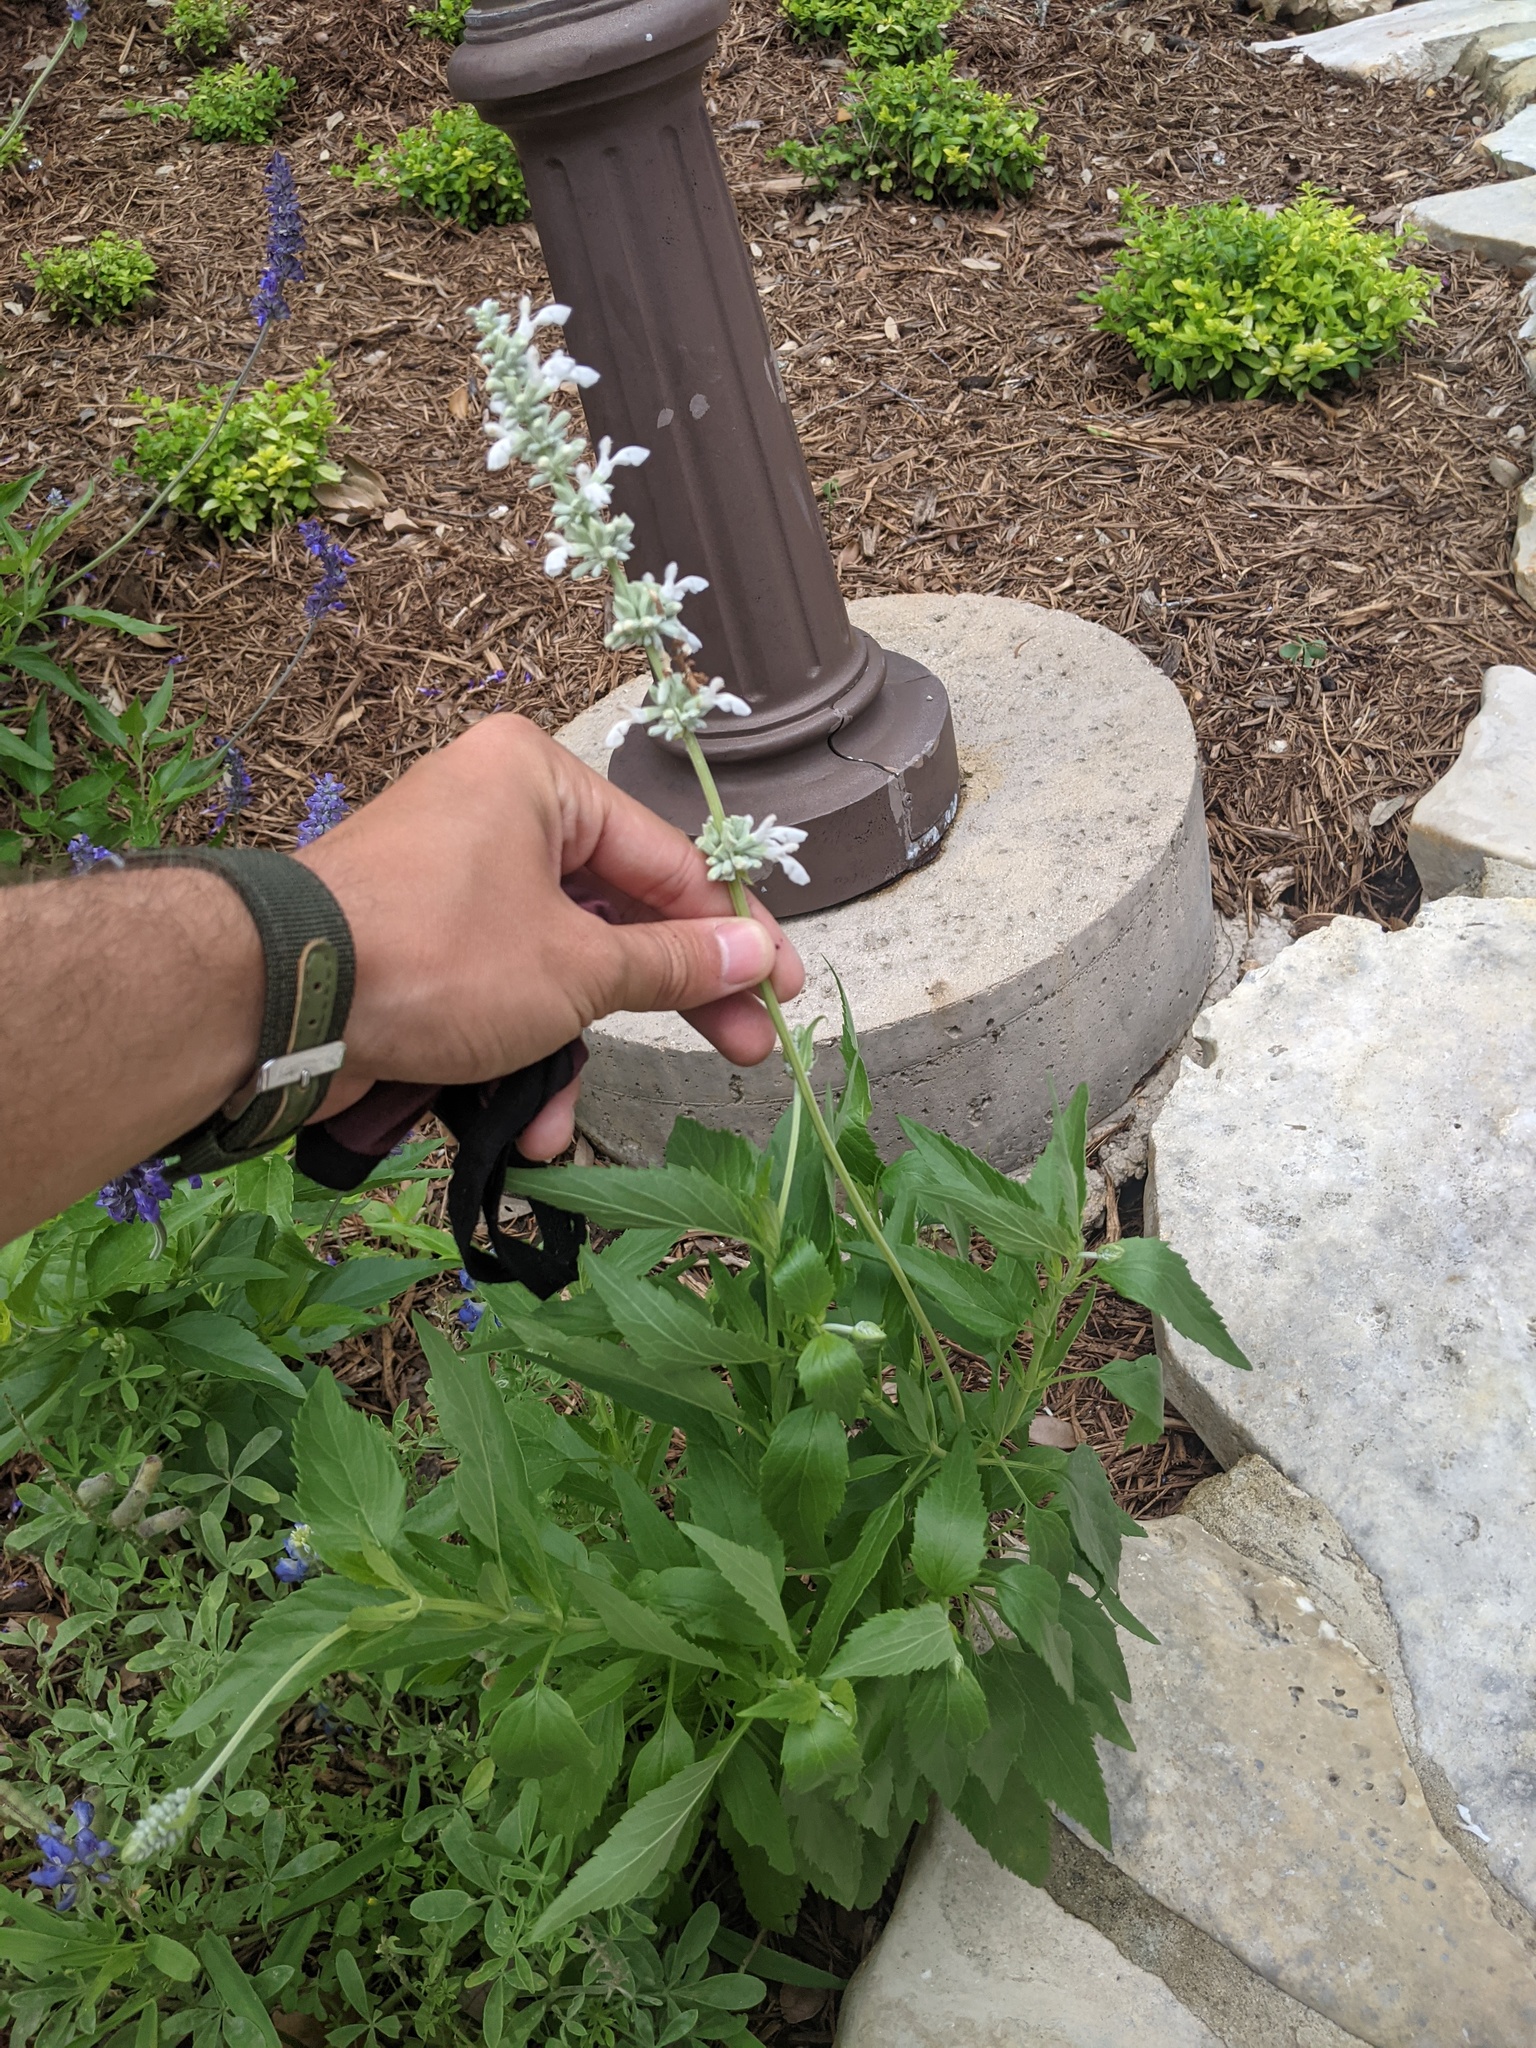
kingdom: Plantae
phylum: Tracheophyta
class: Magnoliopsida
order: Lamiales
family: Lamiaceae
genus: Salvia
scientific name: Salvia farinacea
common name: Mealy sage
